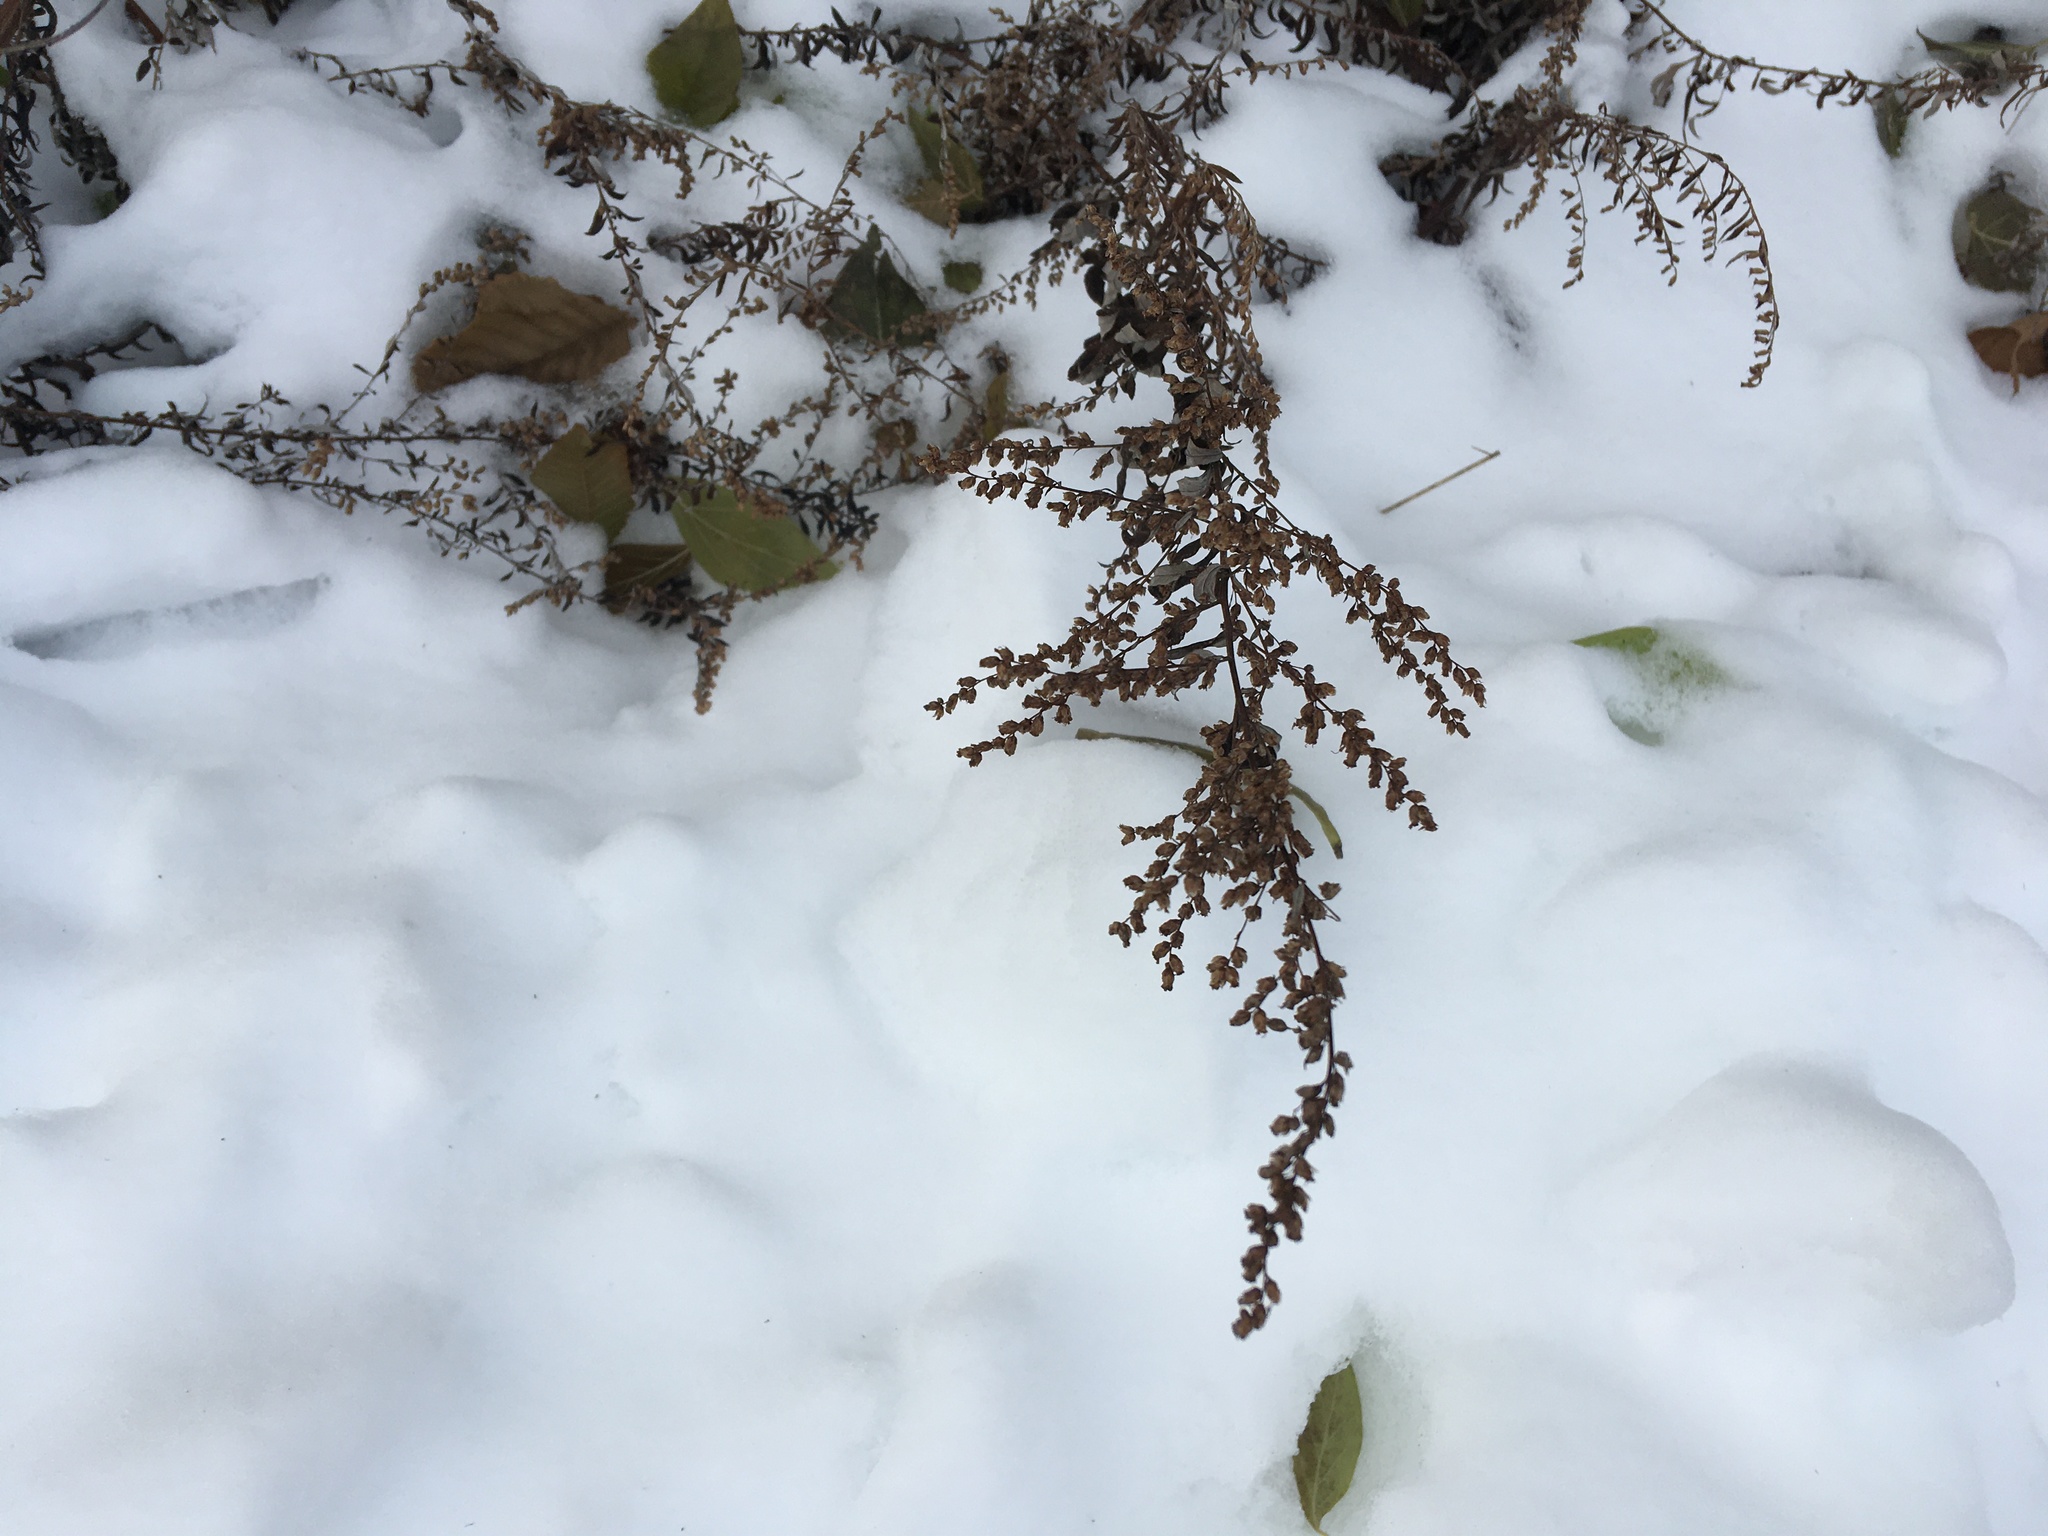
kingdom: Plantae
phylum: Tracheophyta
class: Magnoliopsida
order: Asterales
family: Asteraceae
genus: Artemisia
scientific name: Artemisia vulgaris
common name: Mugwort
